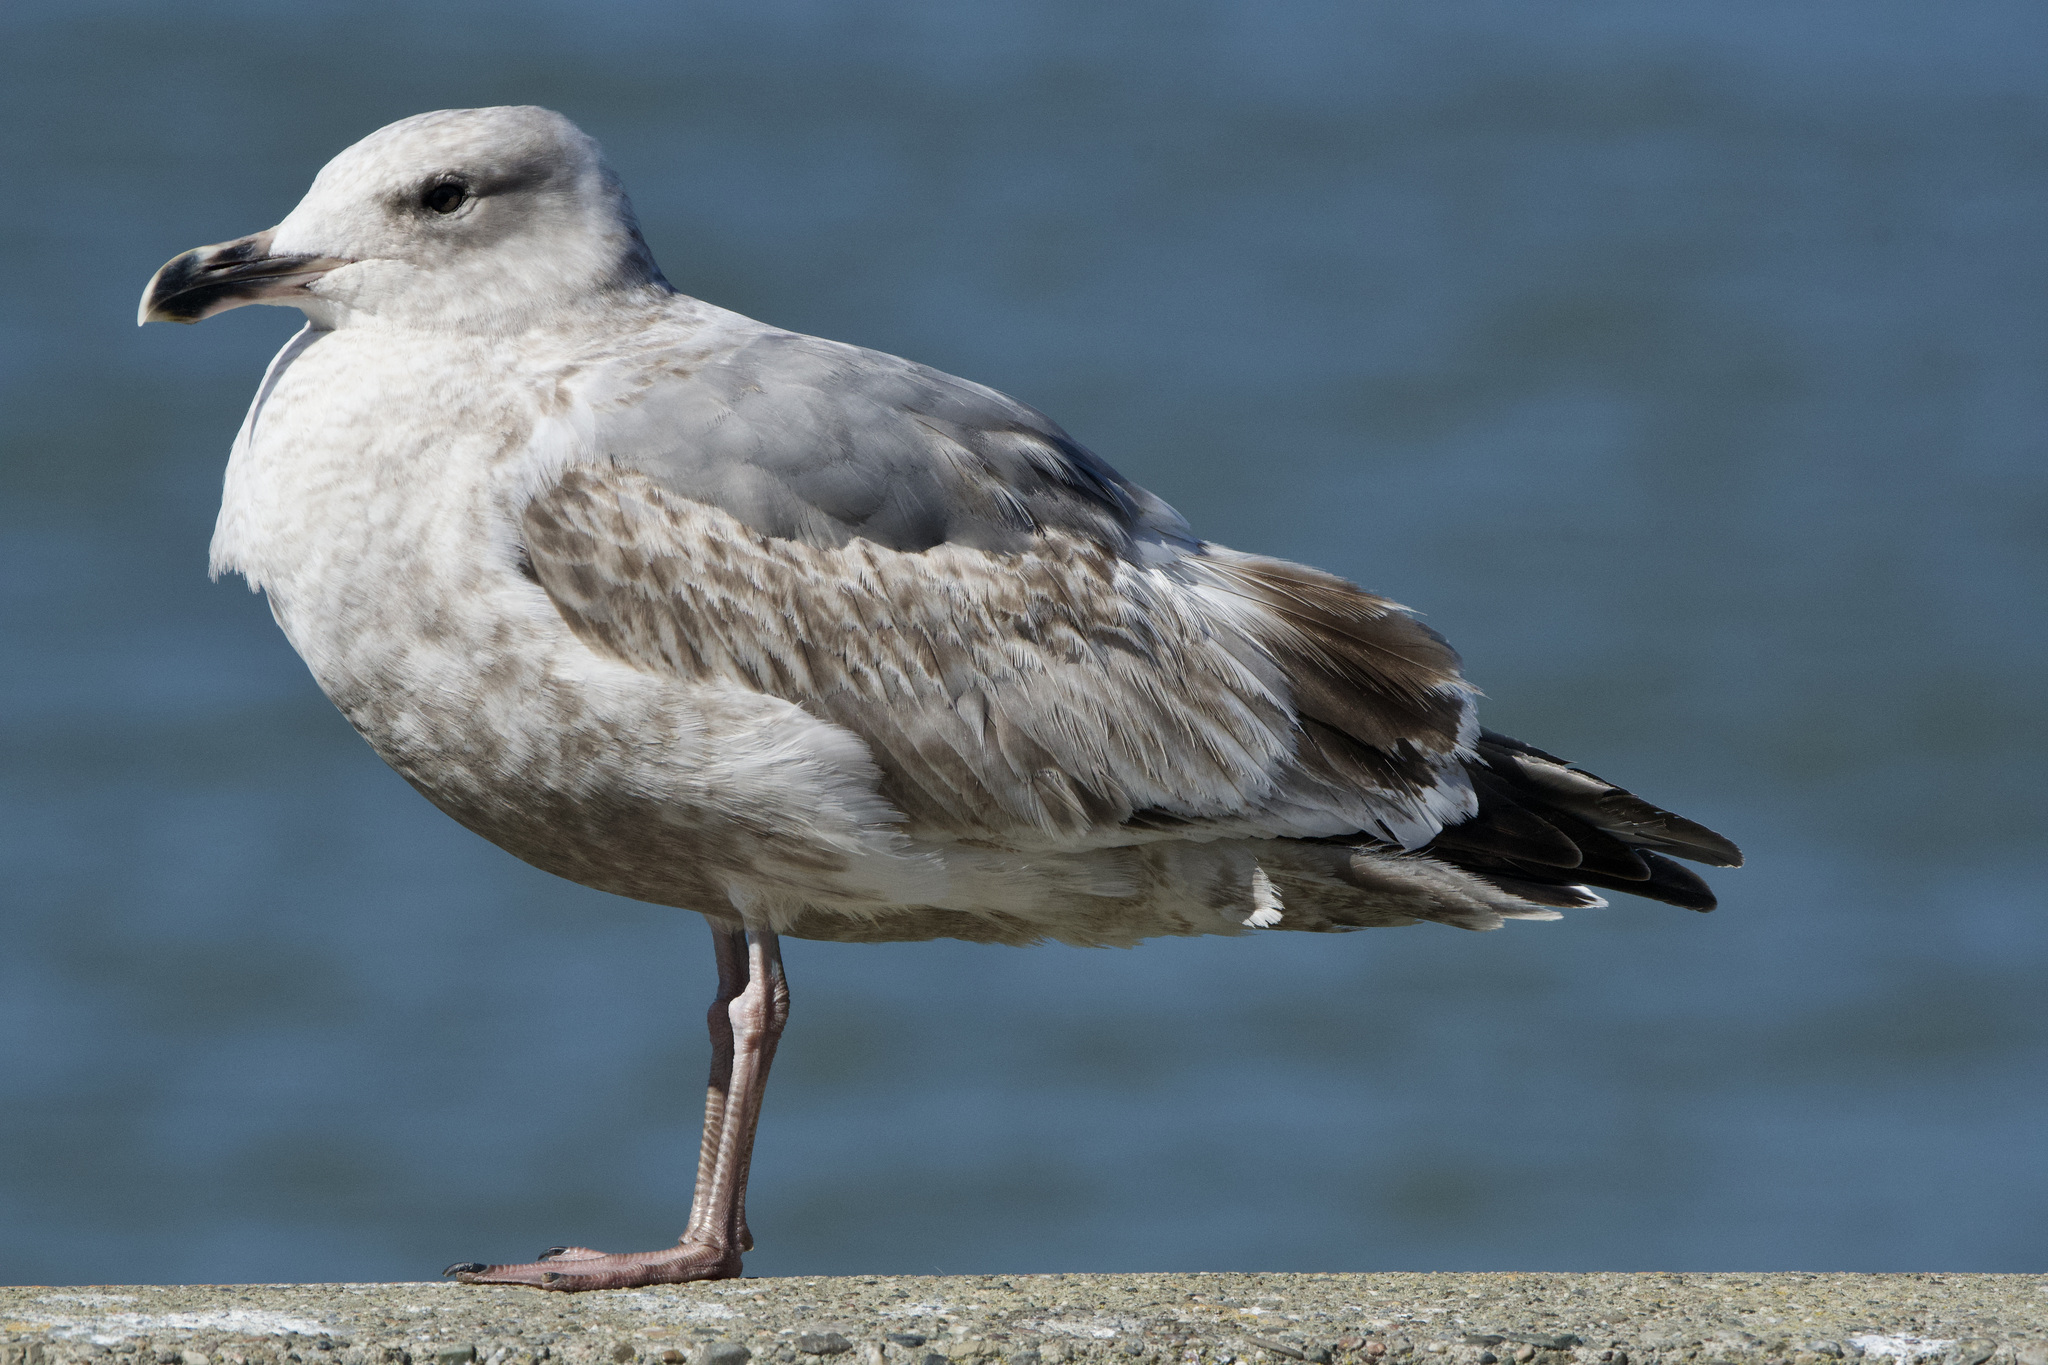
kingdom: Animalia
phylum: Chordata
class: Aves
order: Charadriiformes
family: Laridae
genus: Larus
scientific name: Larus occidentalis
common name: Western gull
